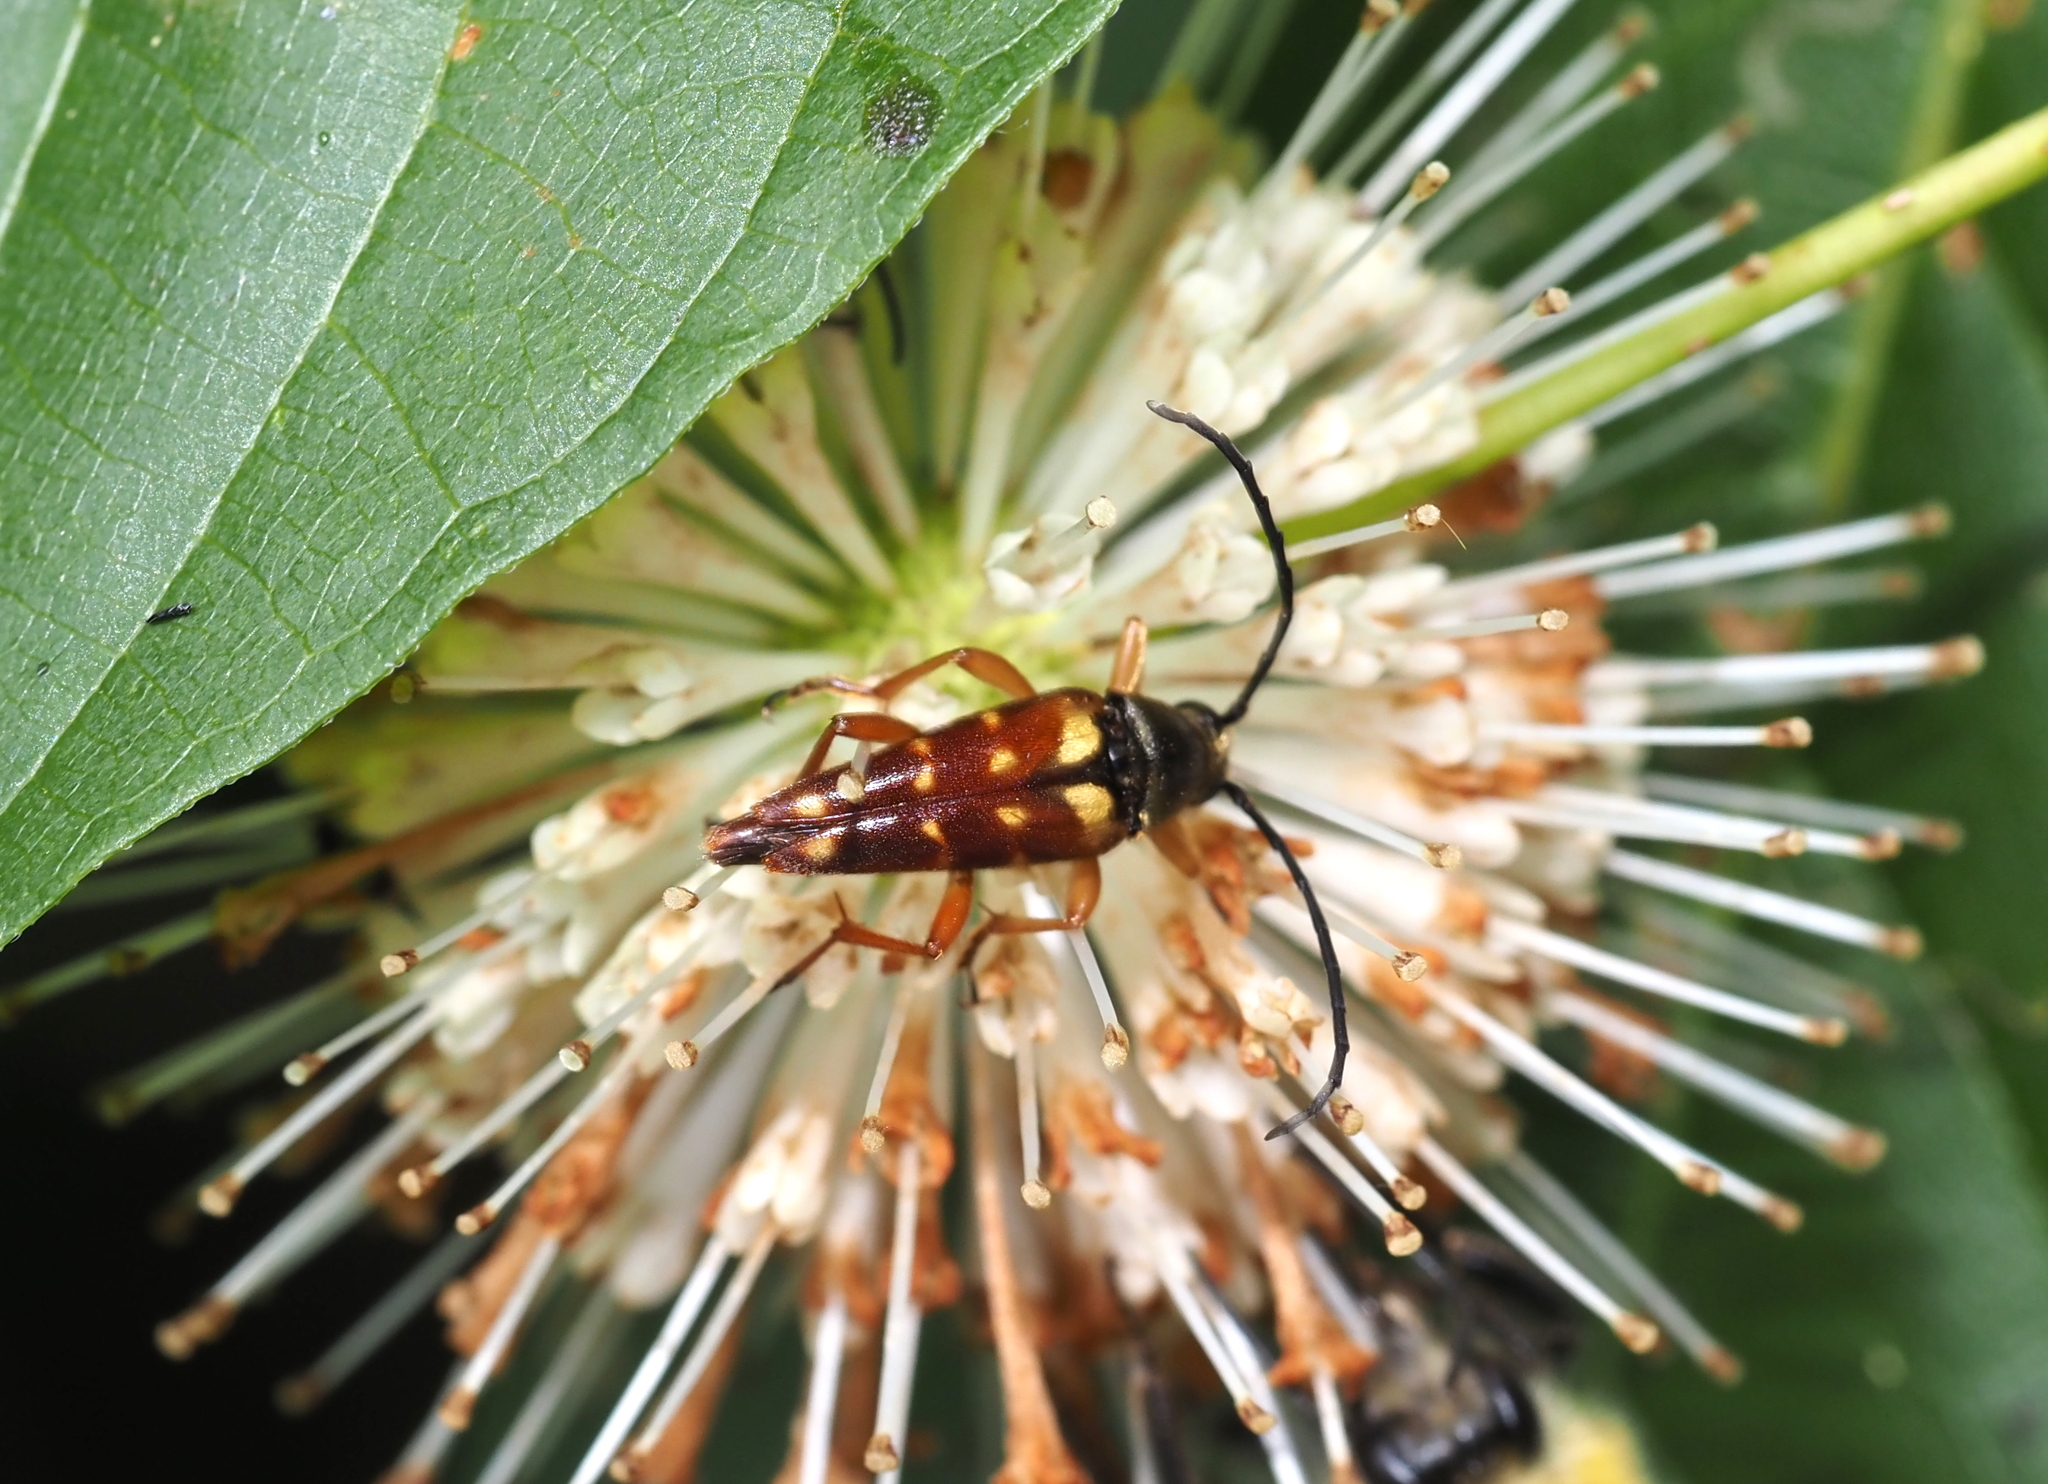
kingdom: Animalia
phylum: Arthropoda
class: Insecta
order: Coleoptera
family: Cerambycidae
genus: Typocerus
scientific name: Typocerus velutinus
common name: Banded longhorn beetle
